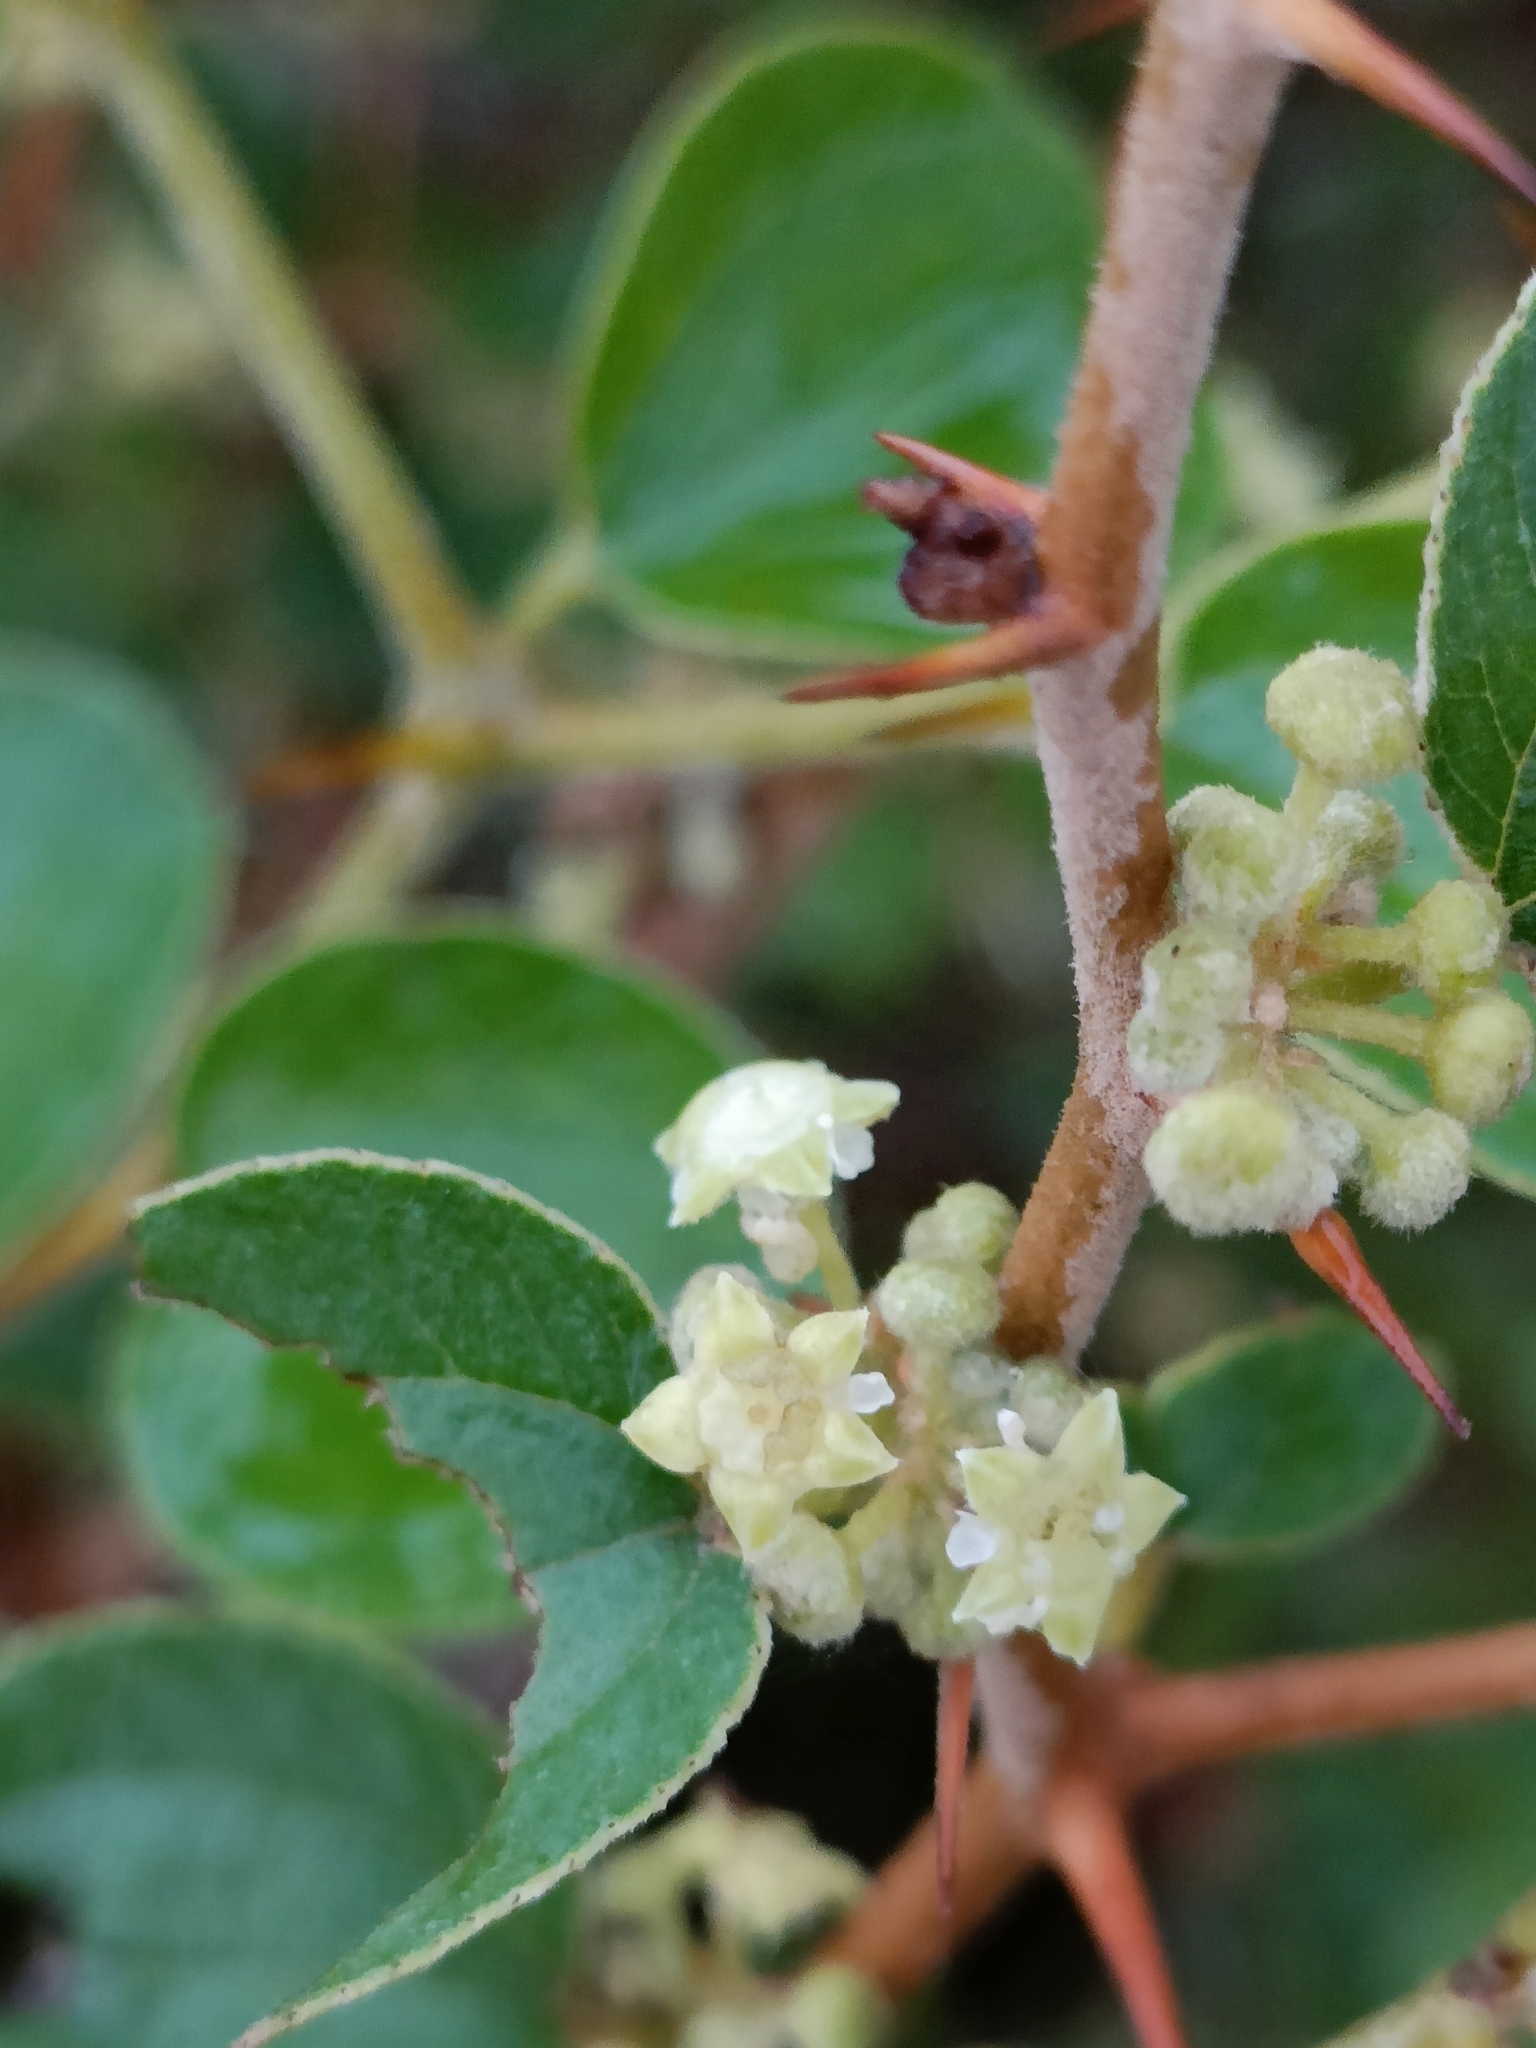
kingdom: Plantae
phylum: Tracheophyta
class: Magnoliopsida
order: Rosales
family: Rhamnaceae
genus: Ziziphus
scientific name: Ziziphus nummularia
